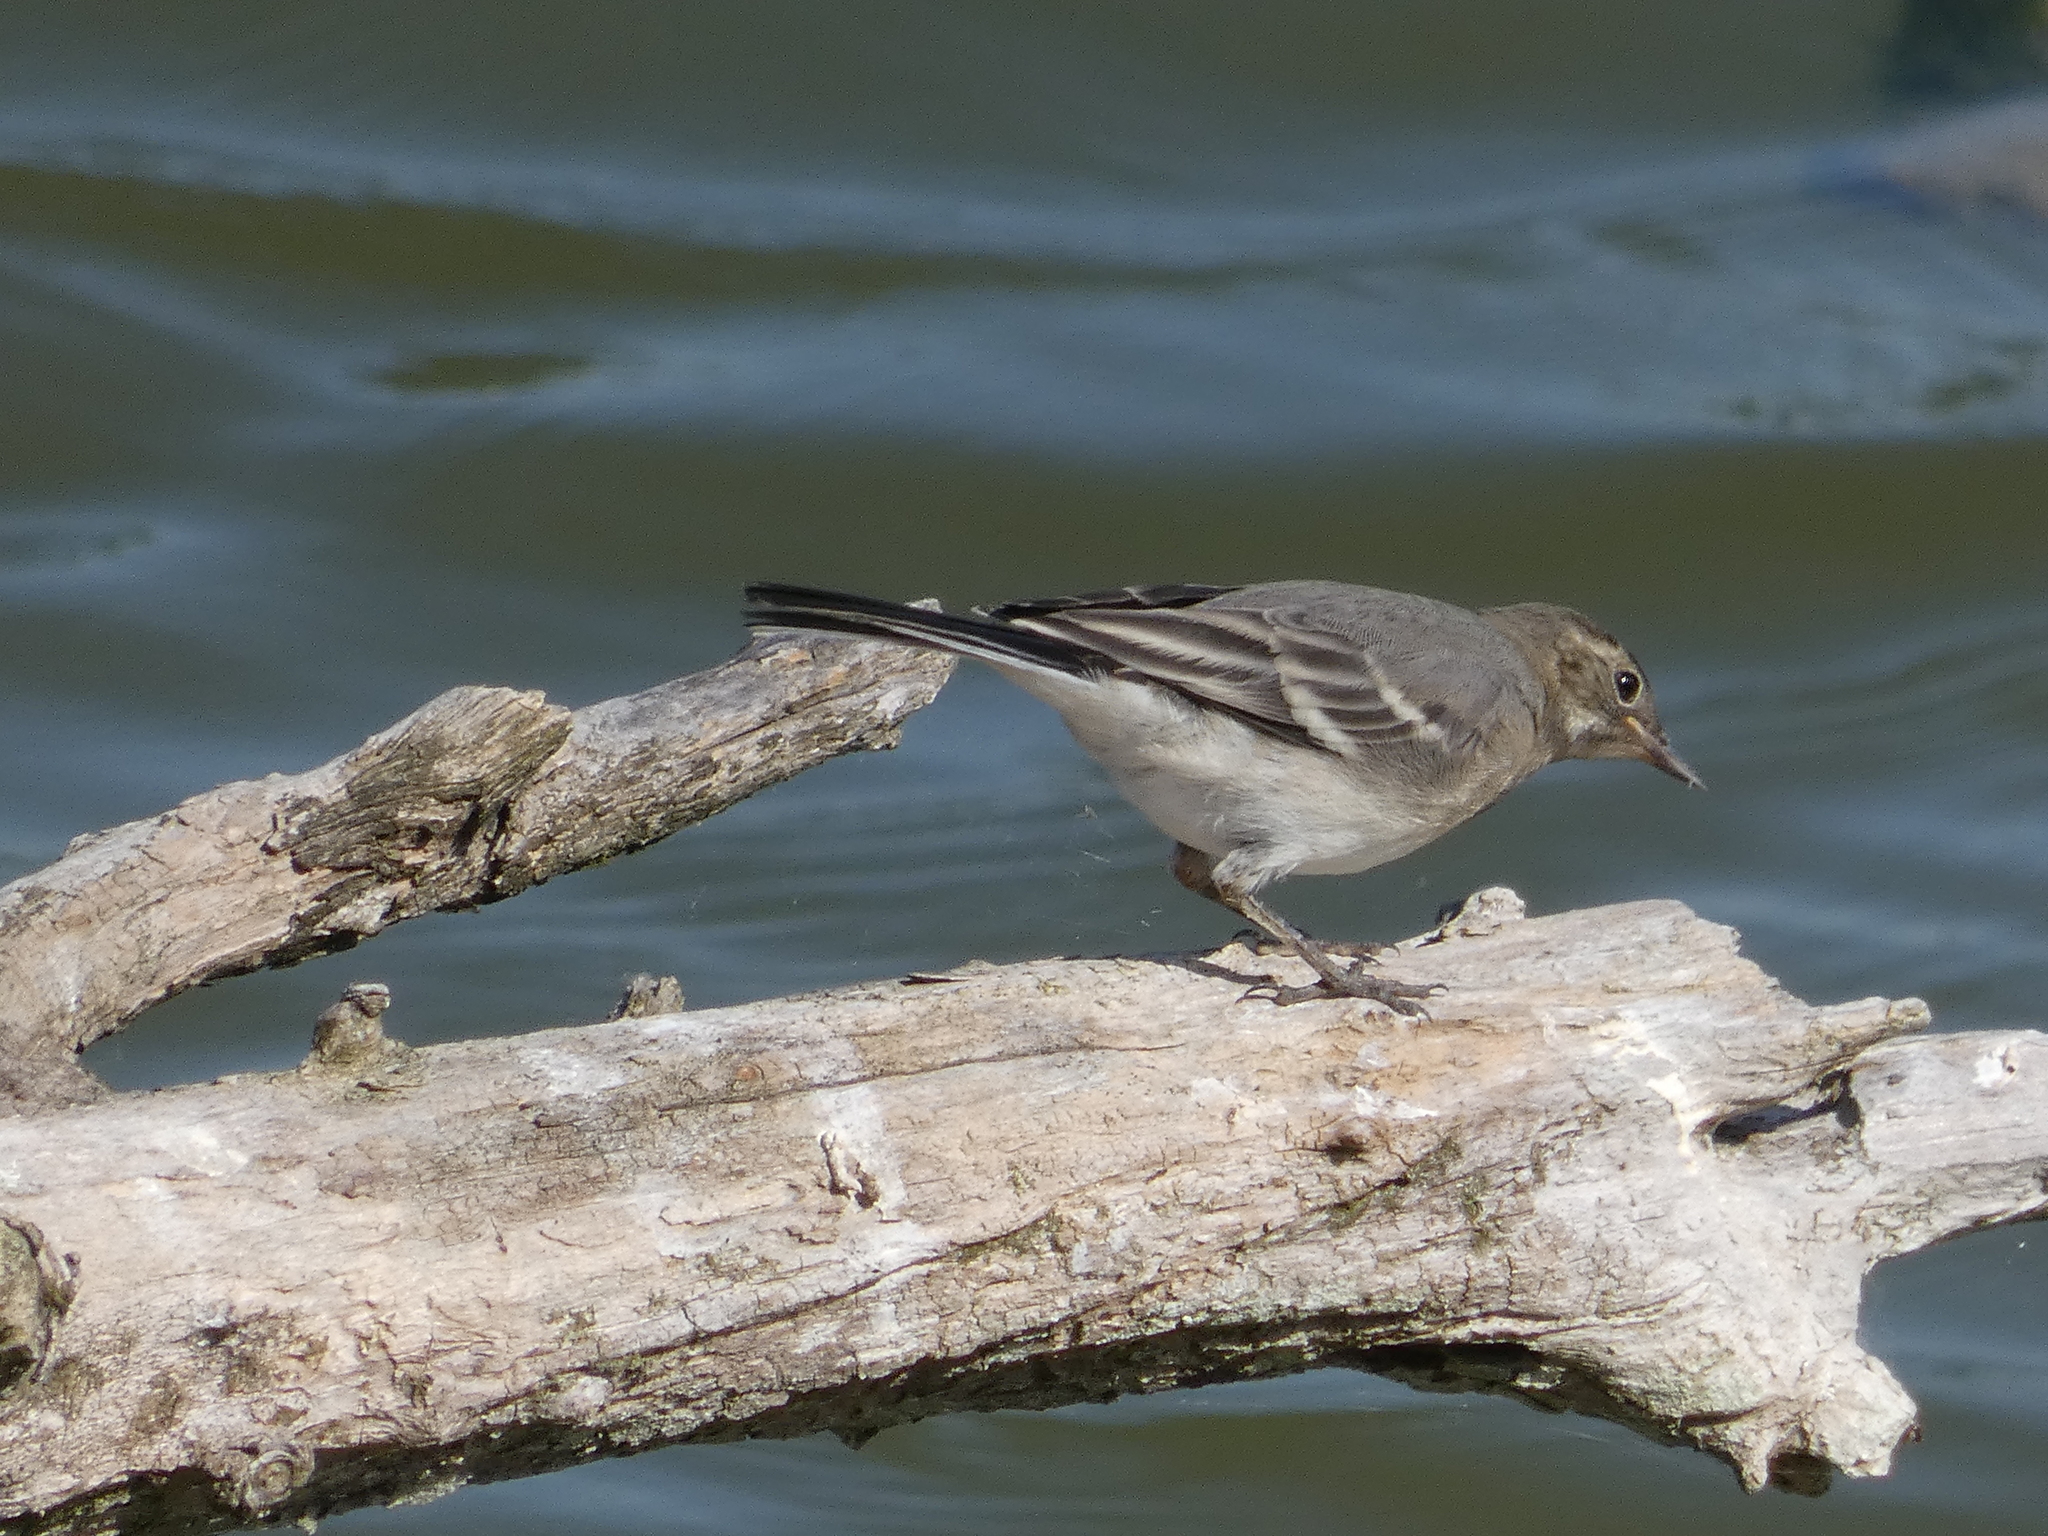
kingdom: Animalia
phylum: Chordata
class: Aves
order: Passeriformes
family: Motacillidae
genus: Motacilla
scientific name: Motacilla alba
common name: White wagtail
